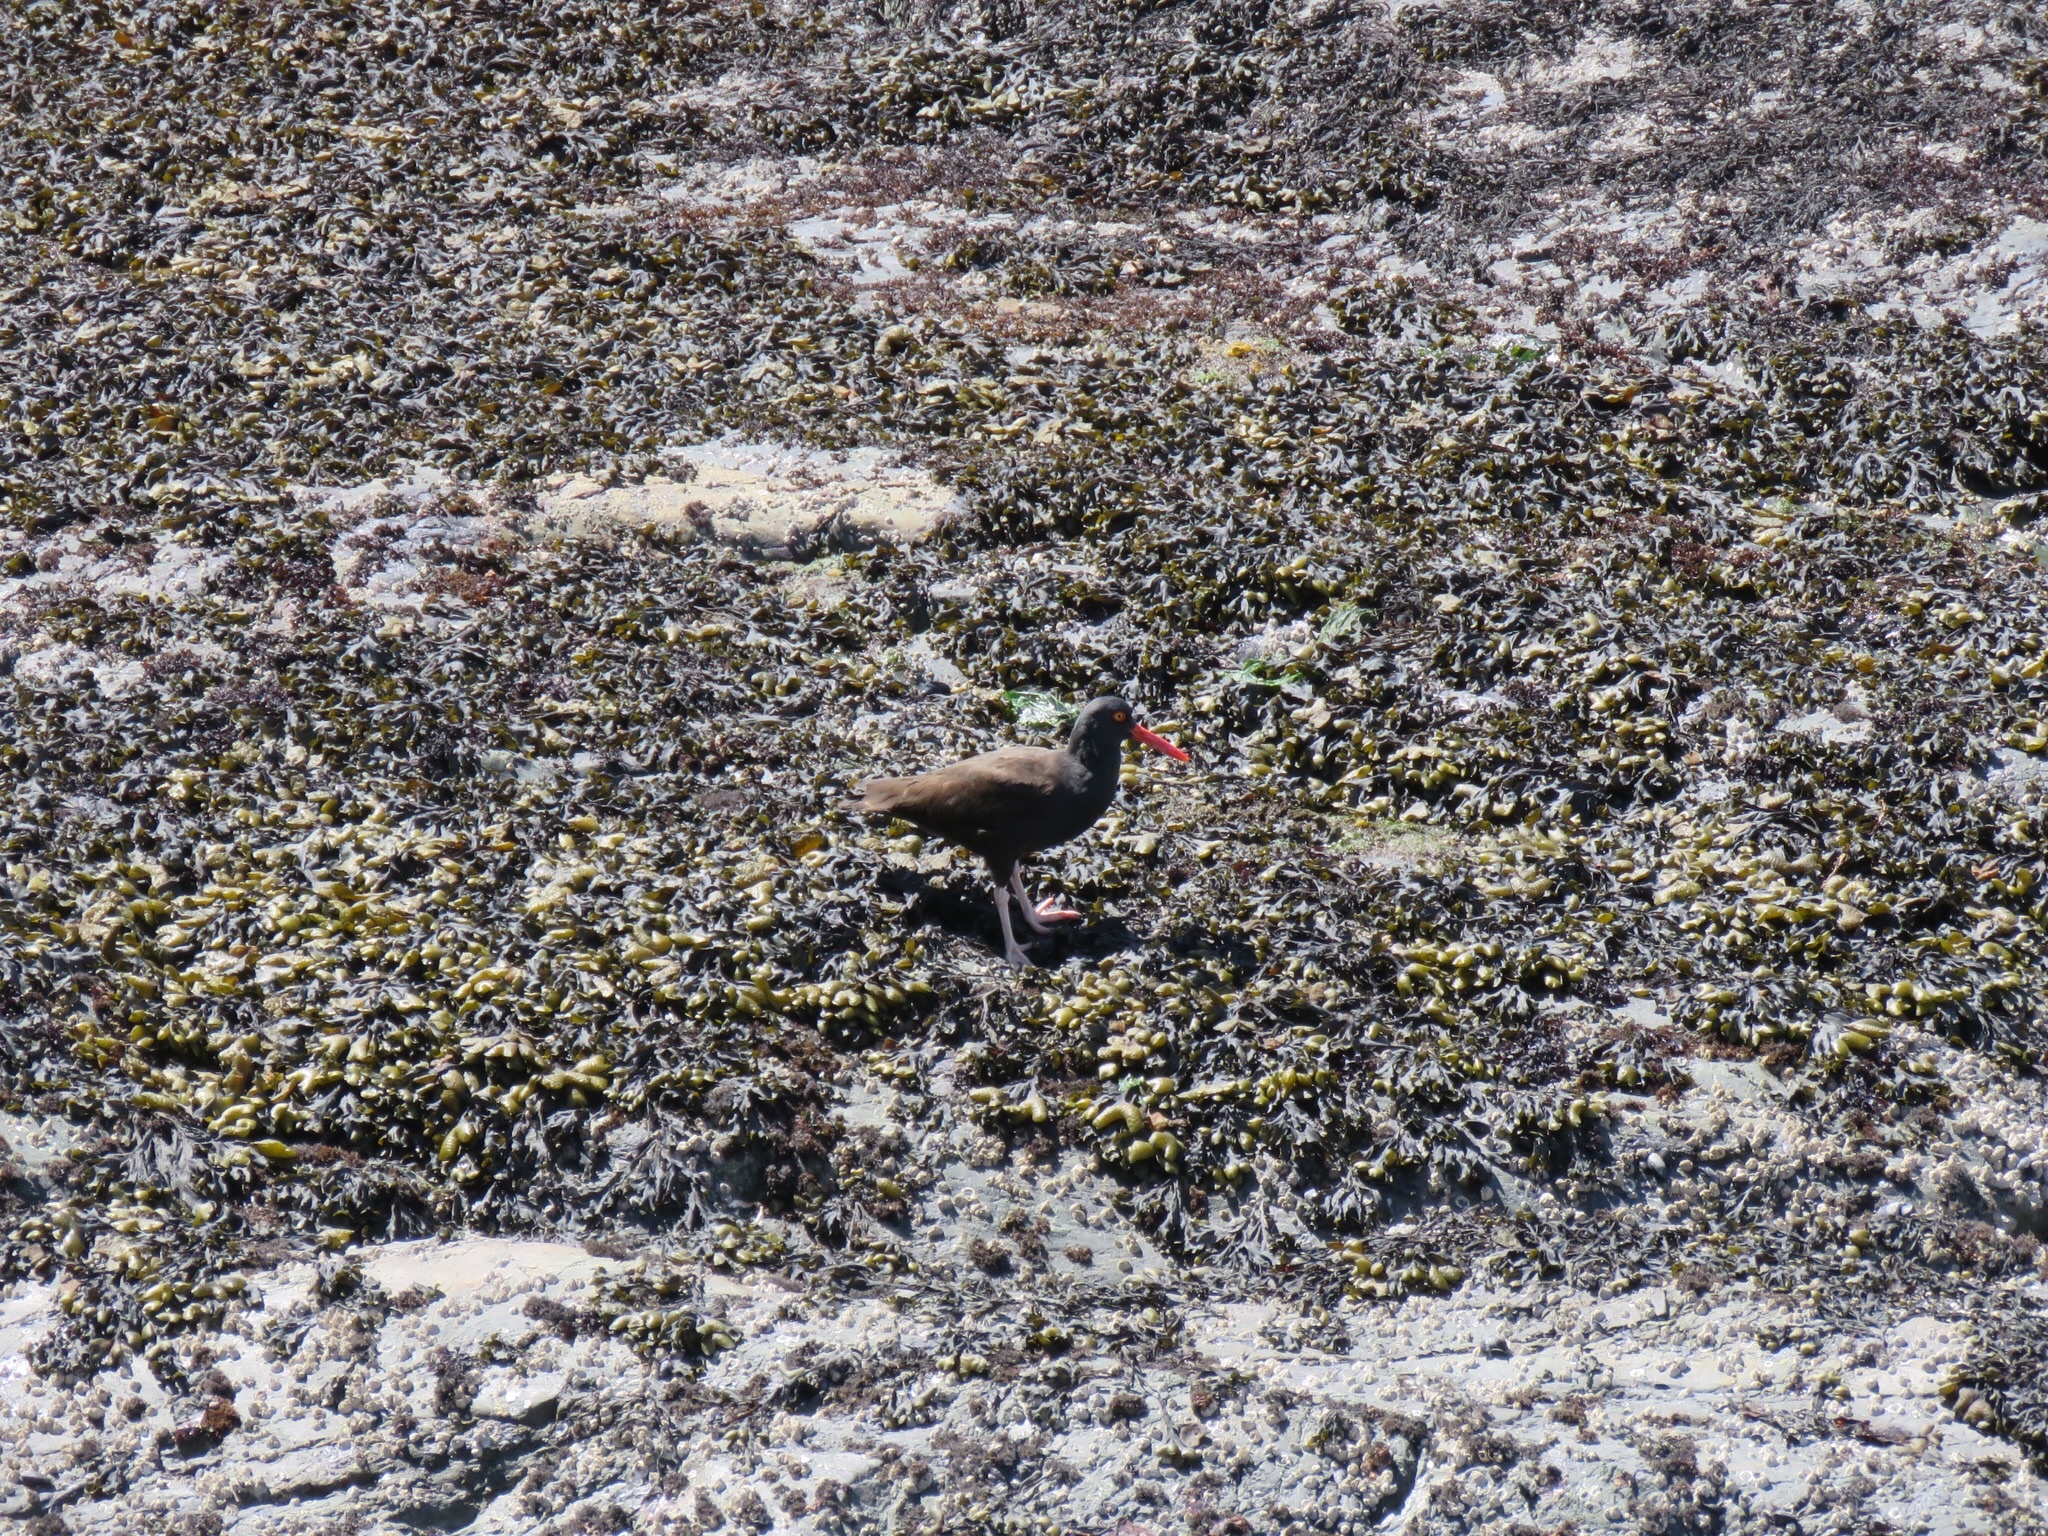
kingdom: Animalia
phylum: Chordata
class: Aves
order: Charadriiformes
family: Haematopodidae
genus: Haematopus
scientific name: Haematopus bachmani
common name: Black oystercatcher
